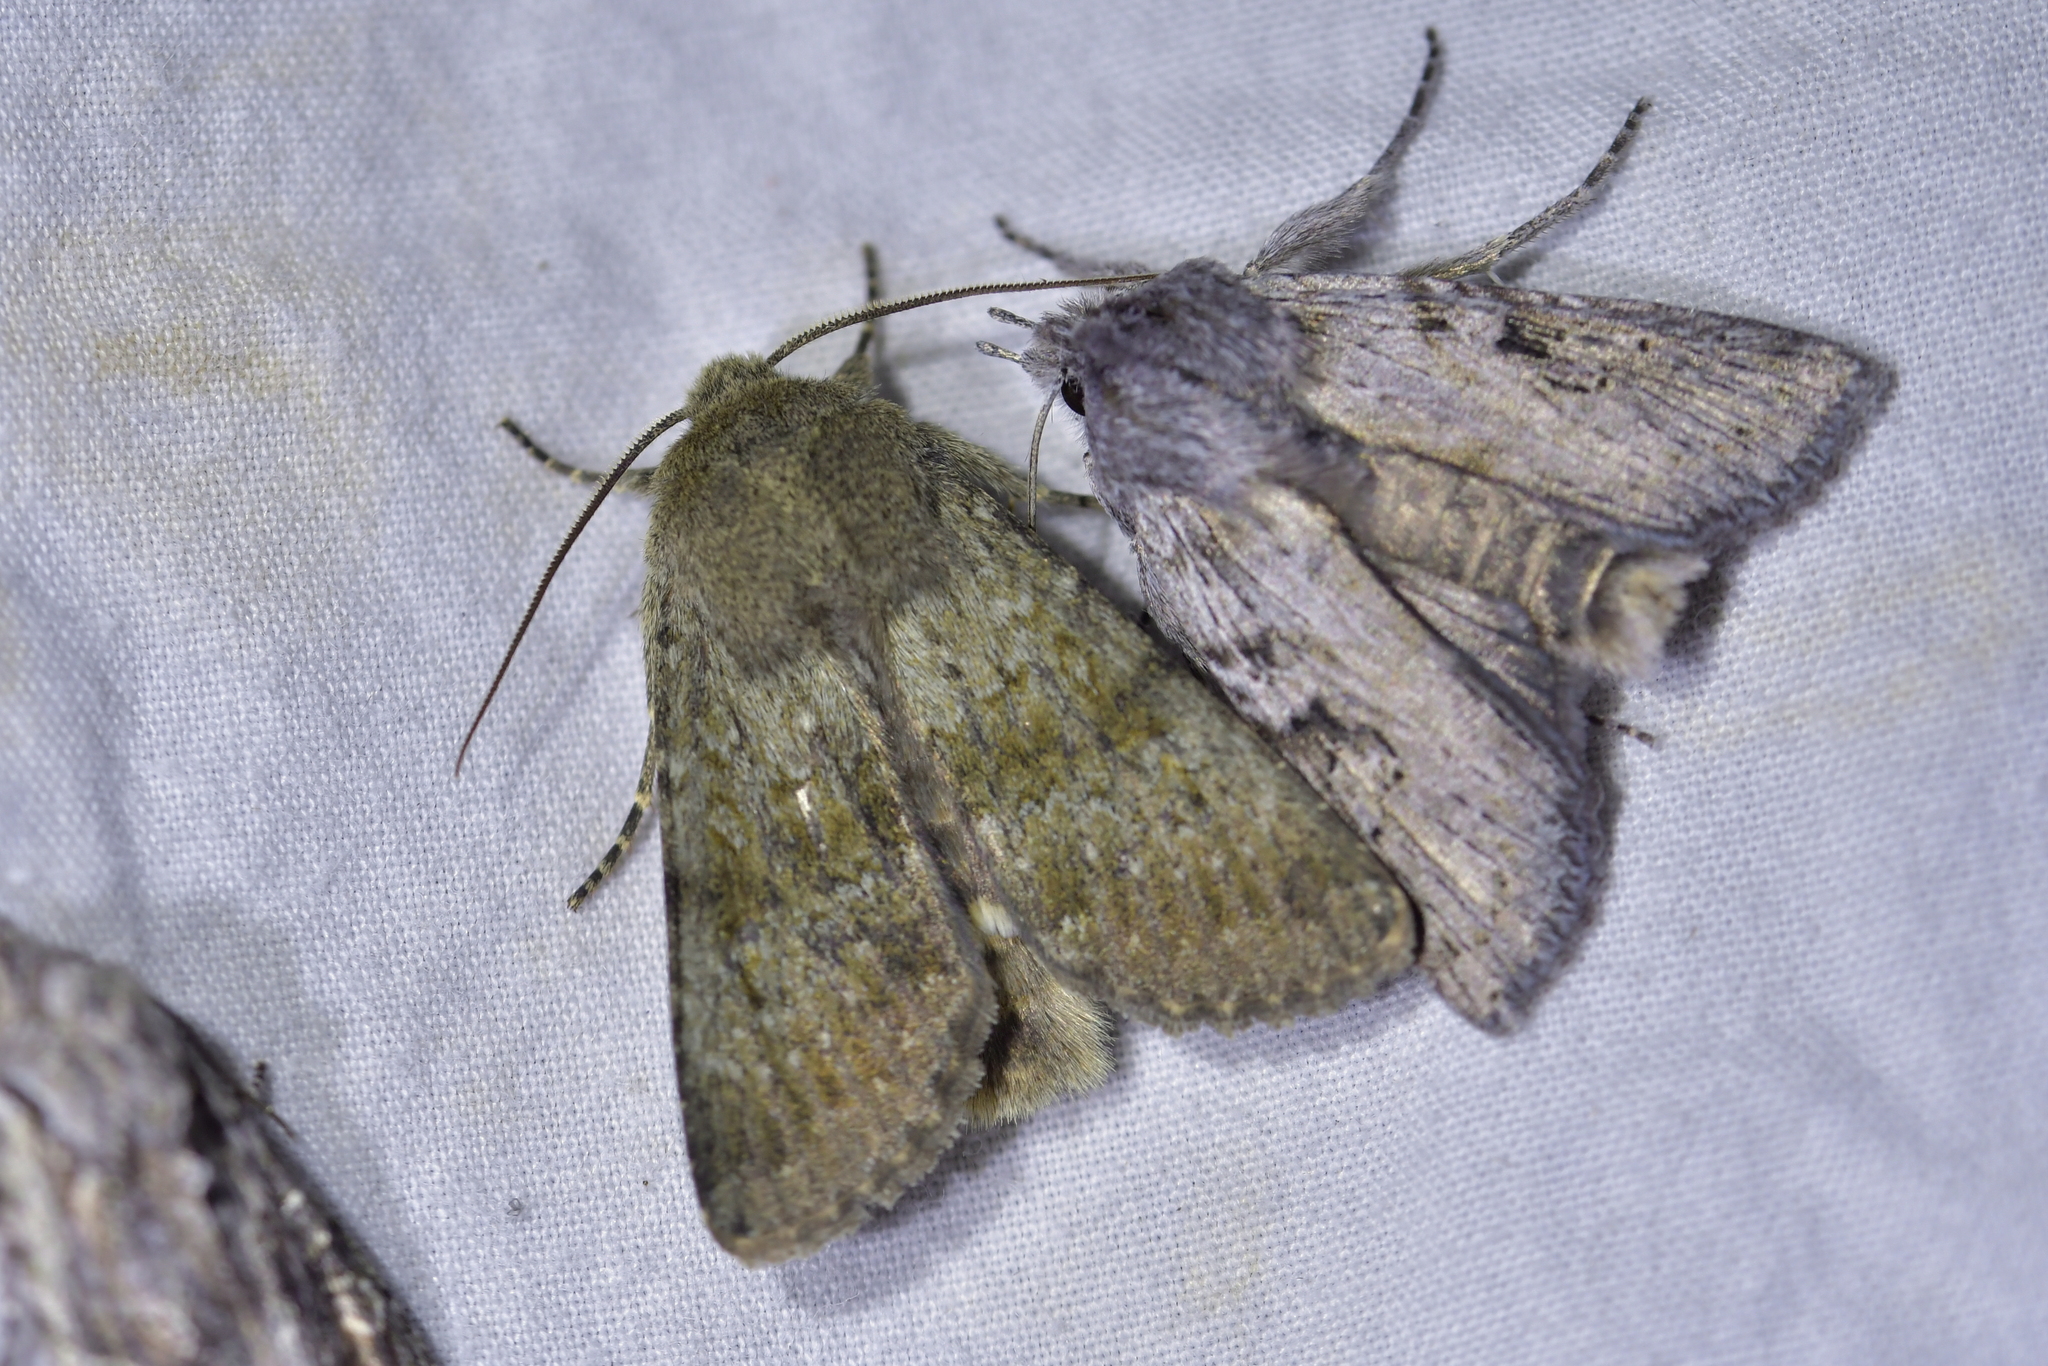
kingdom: Animalia
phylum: Arthropoda
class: Insecta
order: Lepidoptera
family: Noctuidae
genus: Ichneutica
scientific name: Ichneutica moderata
